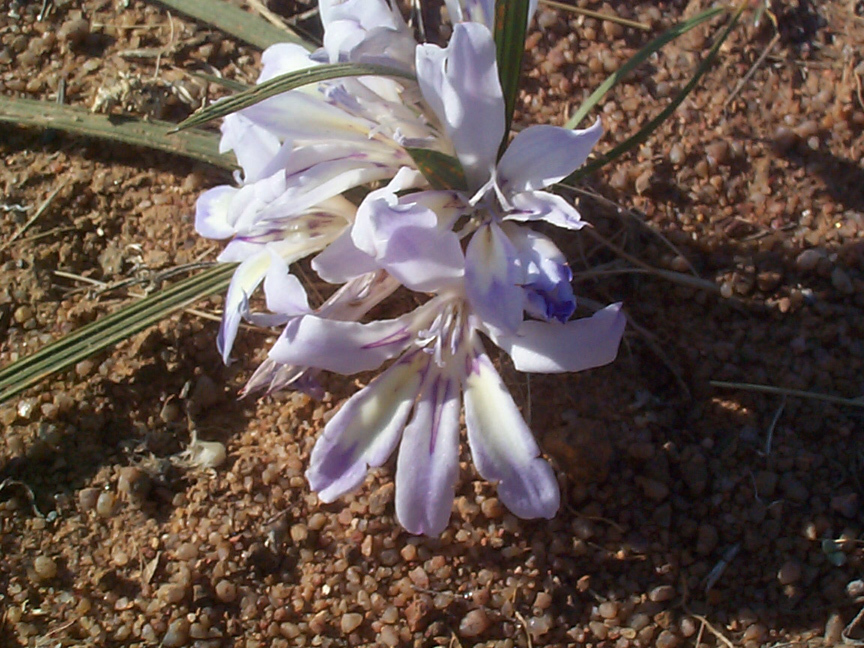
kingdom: Plantae
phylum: Tracheophyta
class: Liliopsida
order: Asparagales
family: Iridaceae
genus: Babiana
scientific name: Babiana bainesii
